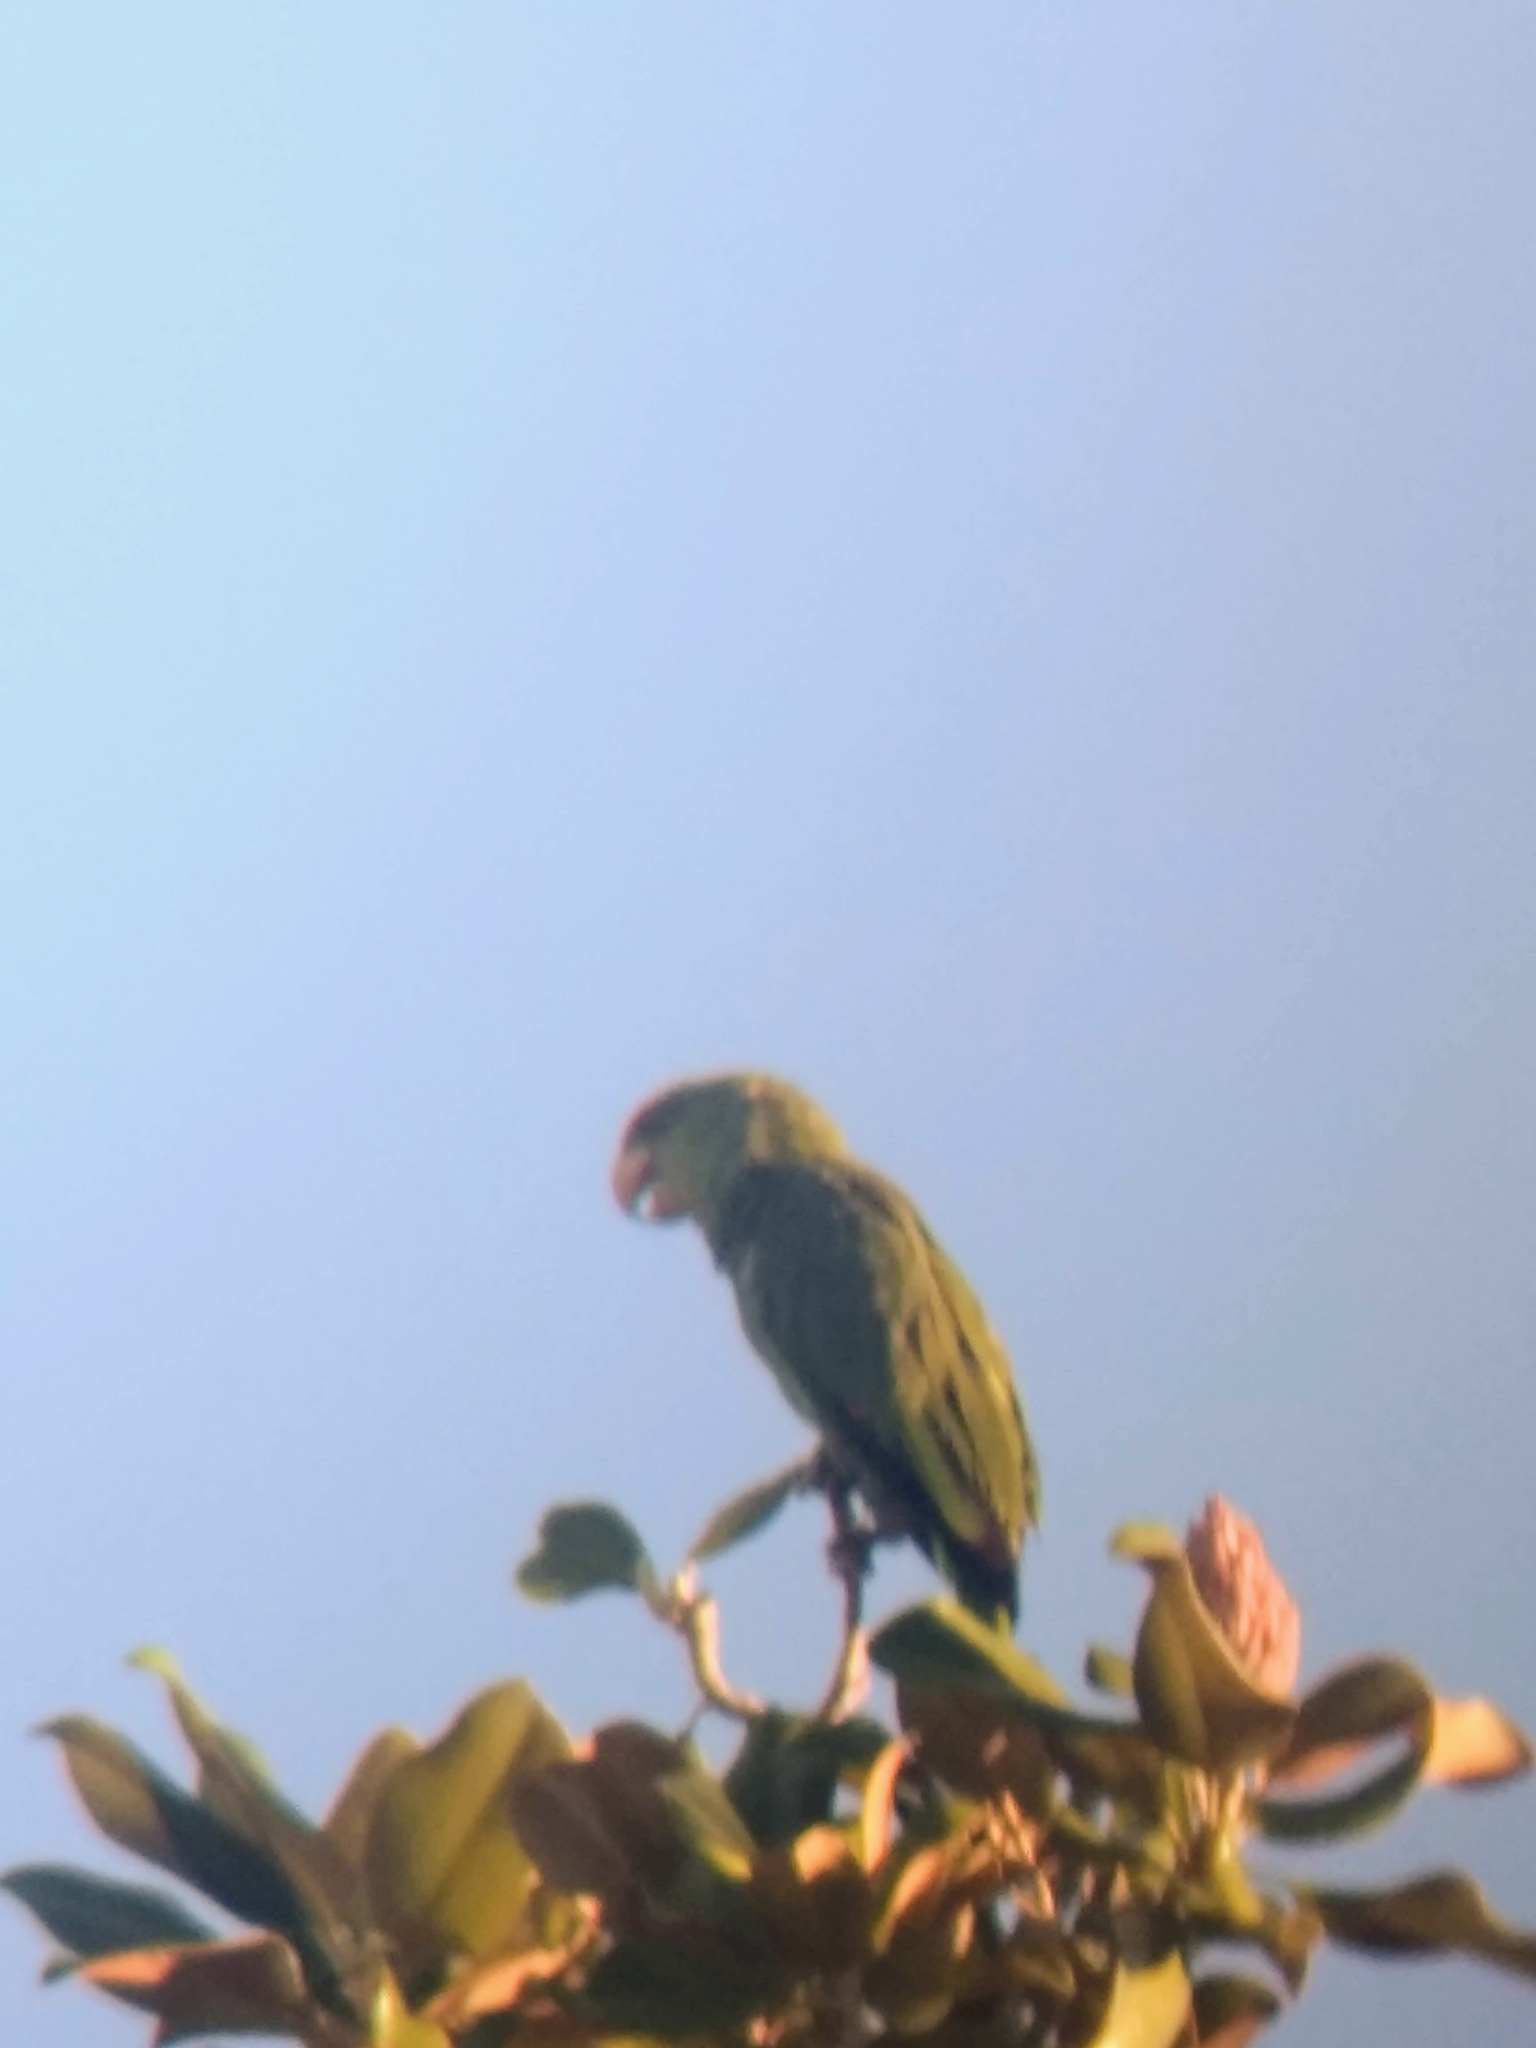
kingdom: Animalia
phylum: Chordata
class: Aves
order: Psittaciformes
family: Psittacidae
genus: Amazona
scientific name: Amazona finschi
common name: Lilac-crowned amazon
